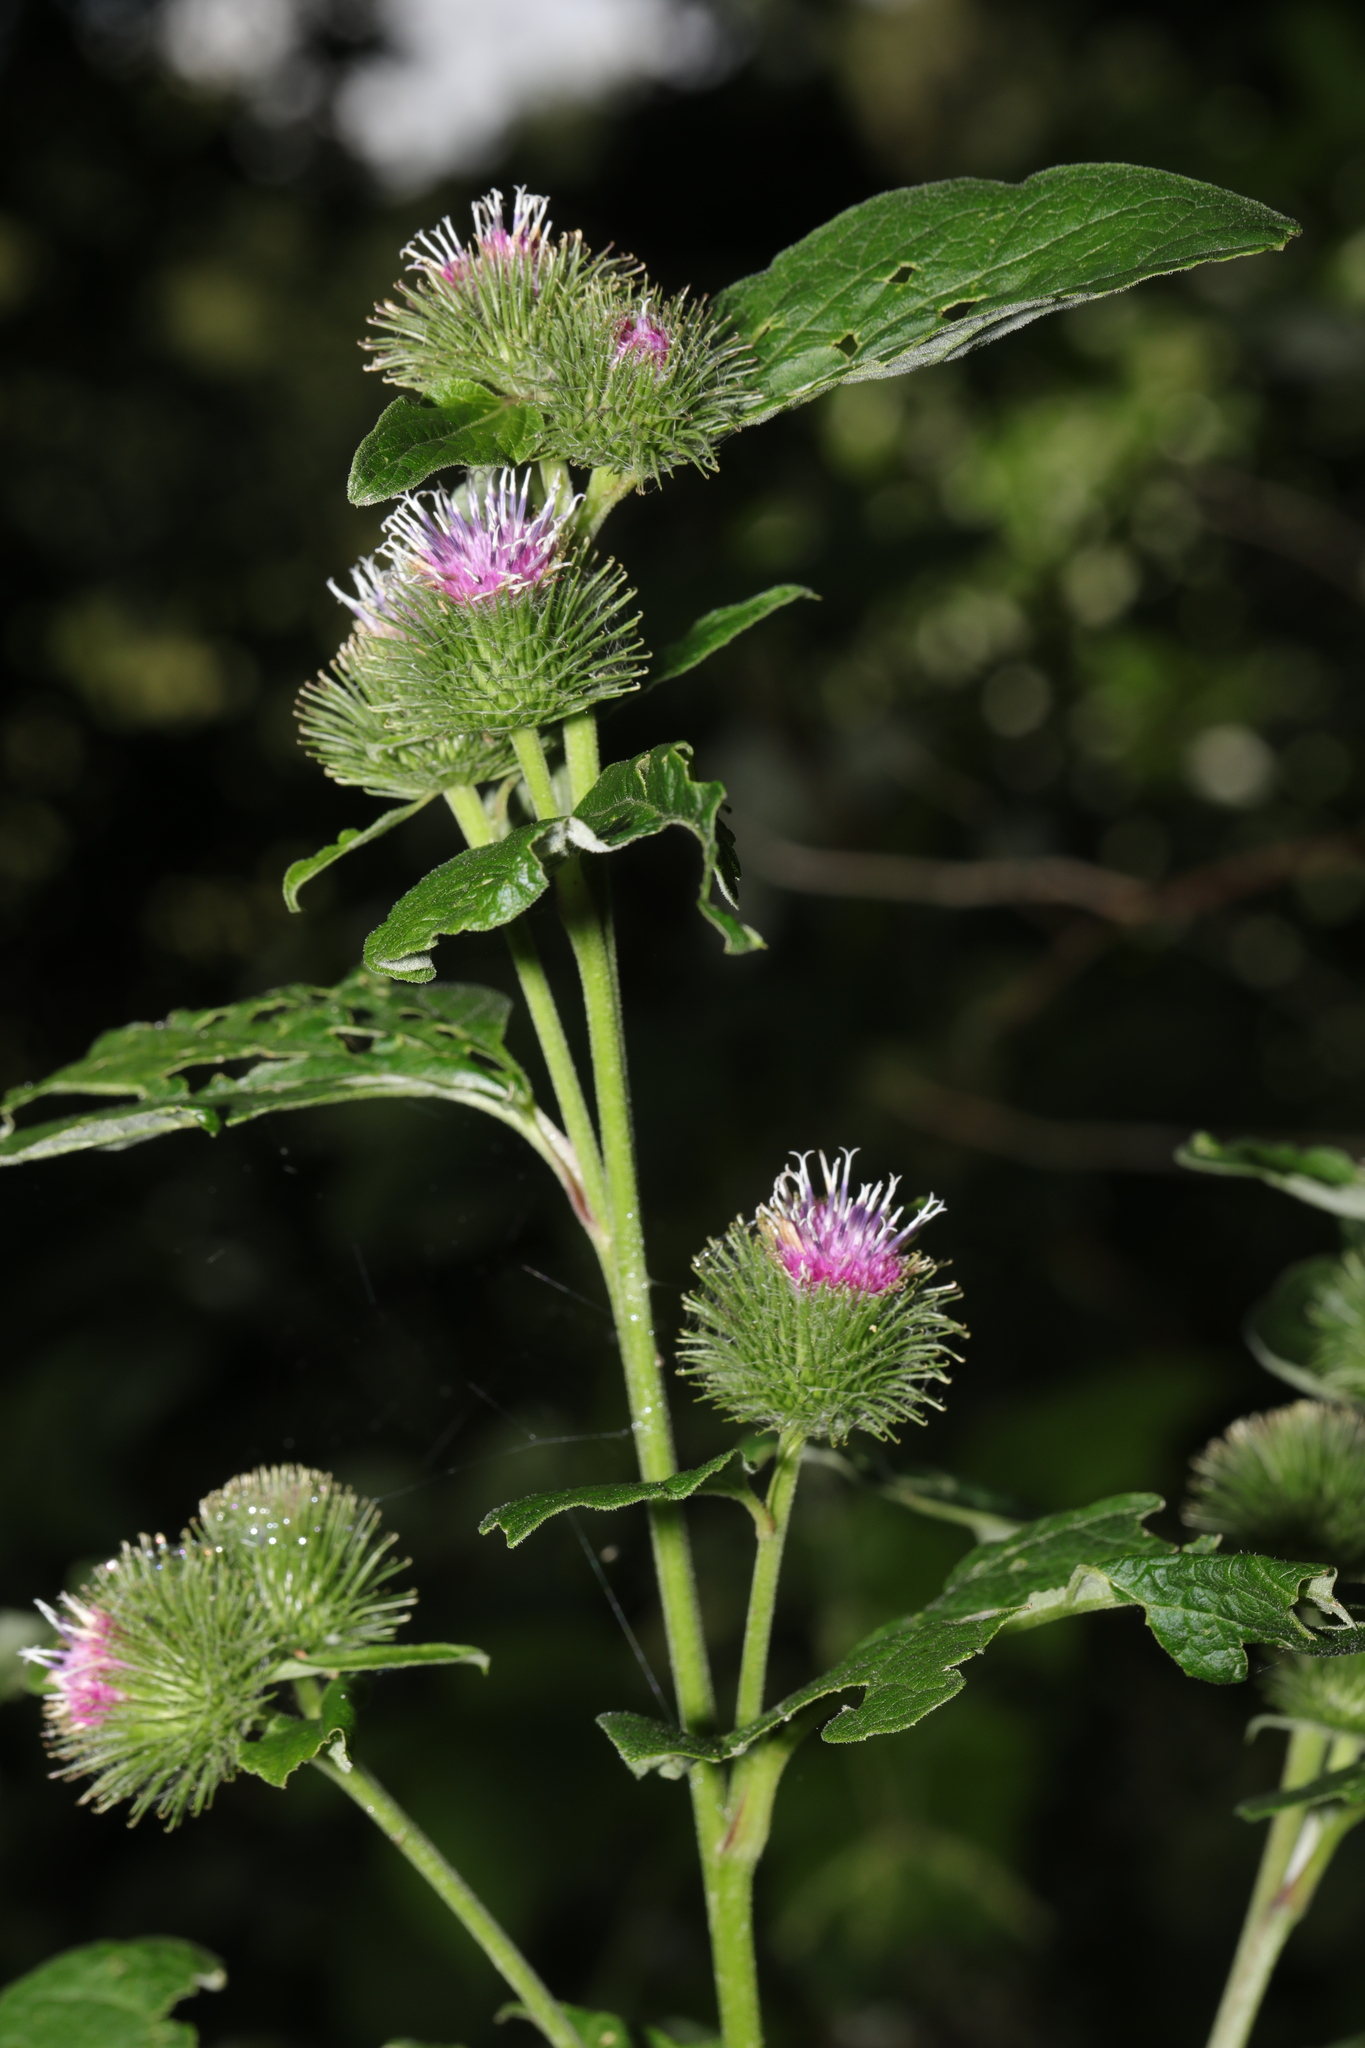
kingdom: Plantae
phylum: Tracheophyta
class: Magnoliopsida
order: Asterales
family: Asteraceae
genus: Arctium
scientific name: Arctium minus
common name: Lesser burdock
